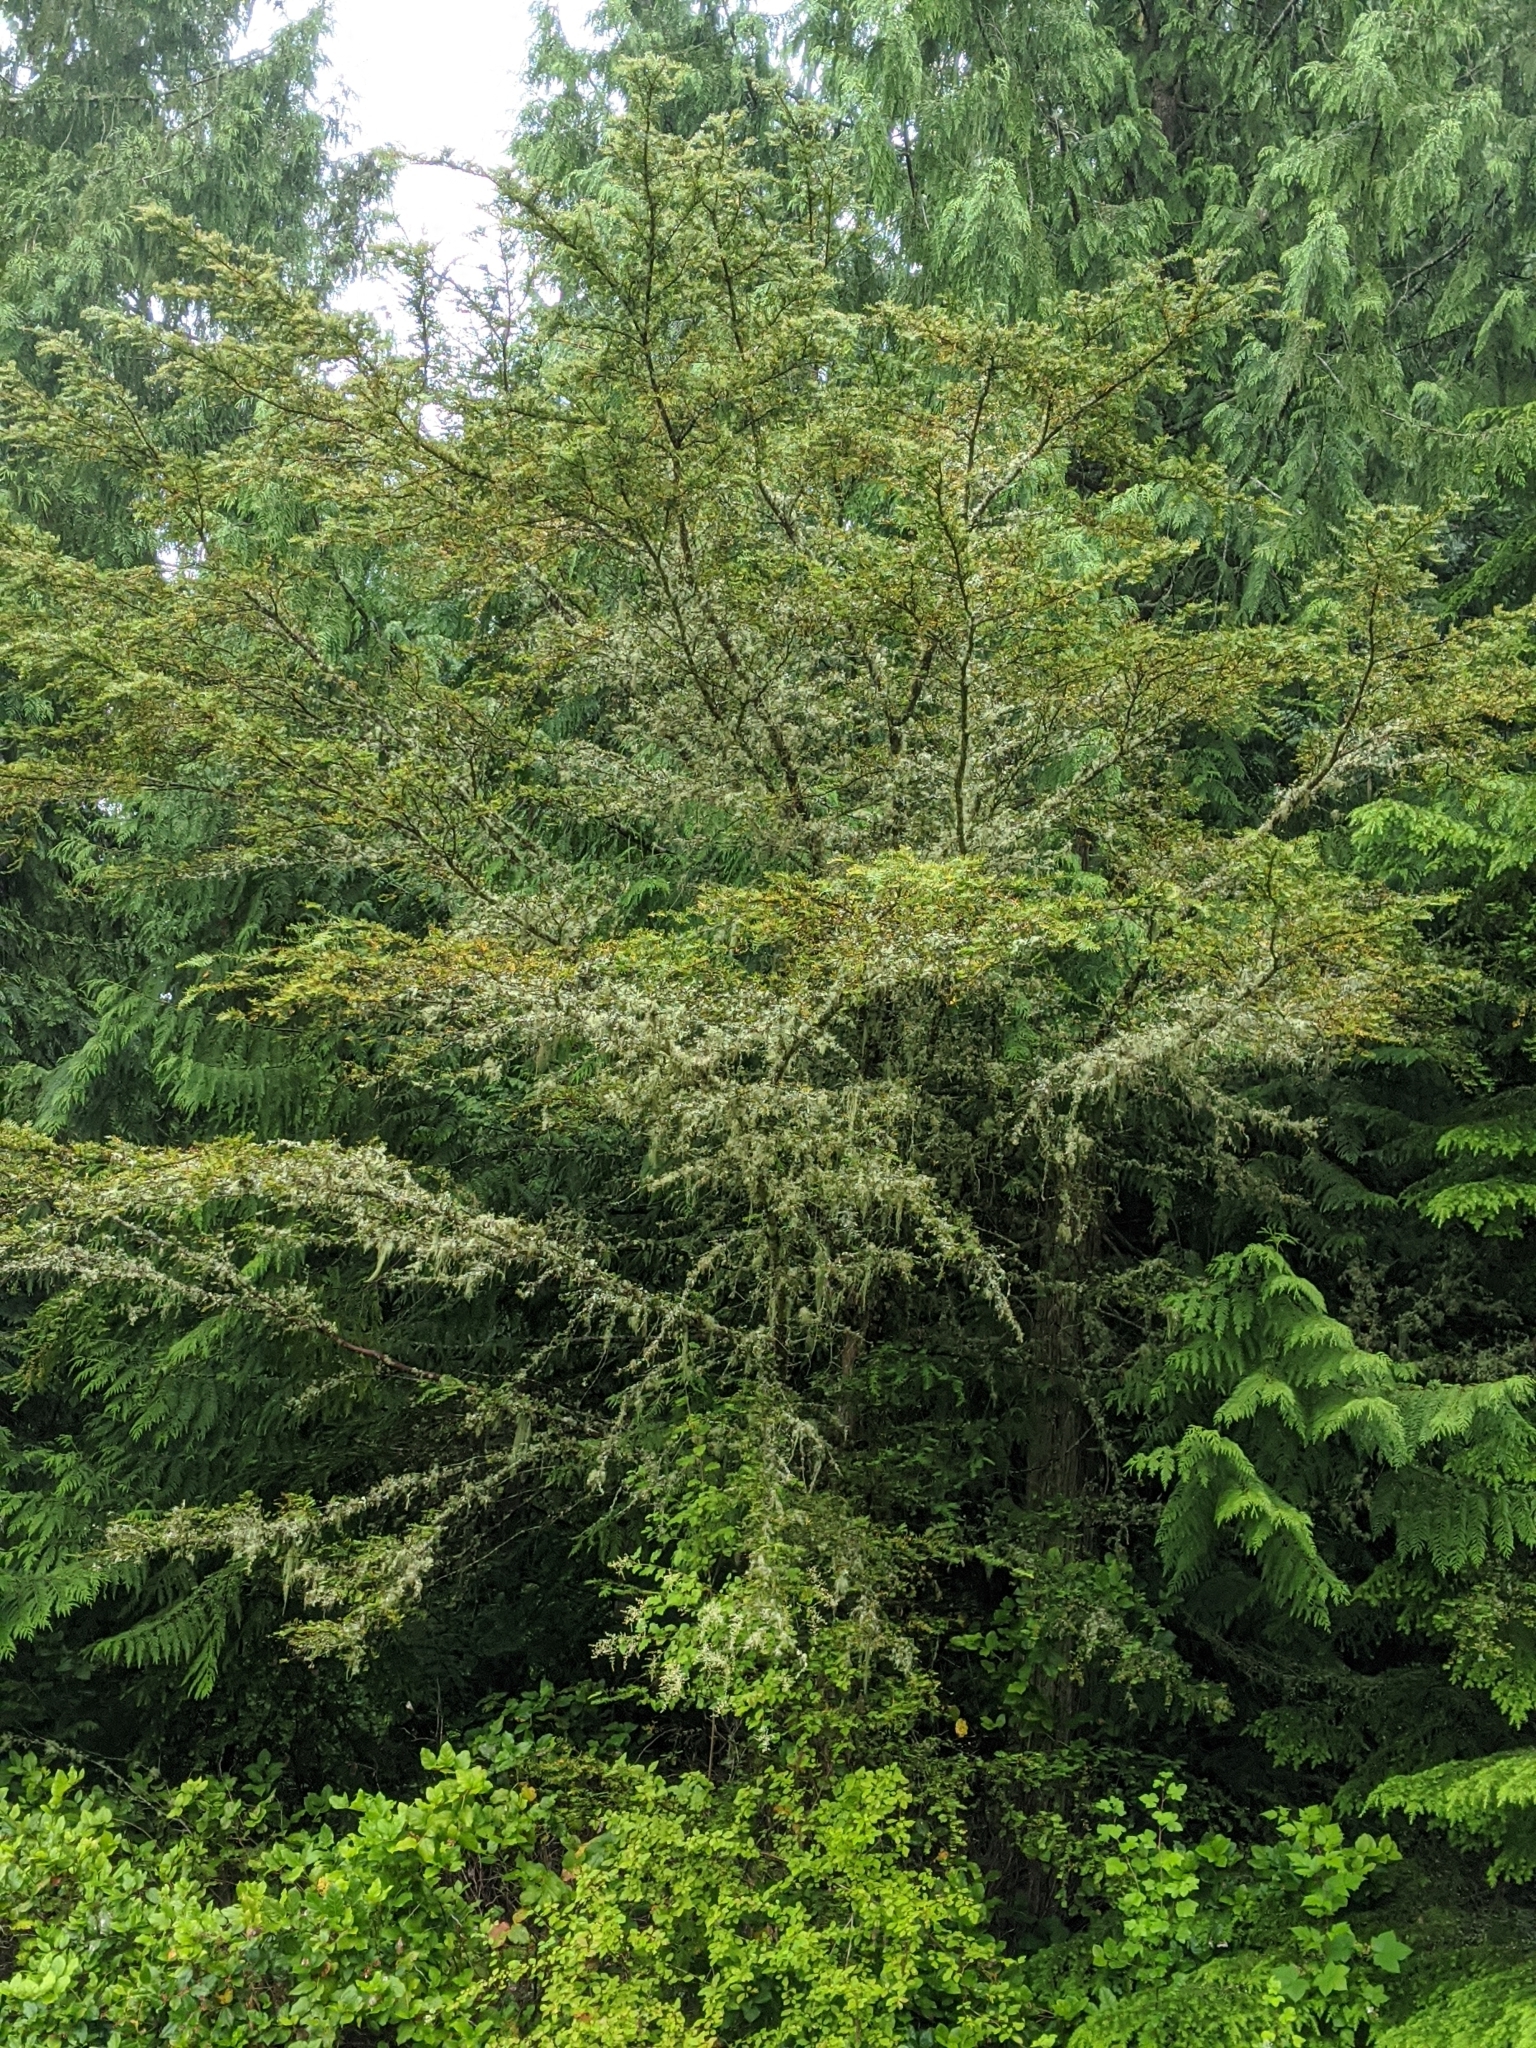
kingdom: Plantae
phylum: Tracheophyta
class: Pinopsida
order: Pinales
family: Taxaceae
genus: Taxus
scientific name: Taxus brevifolia
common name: Pacific yew
